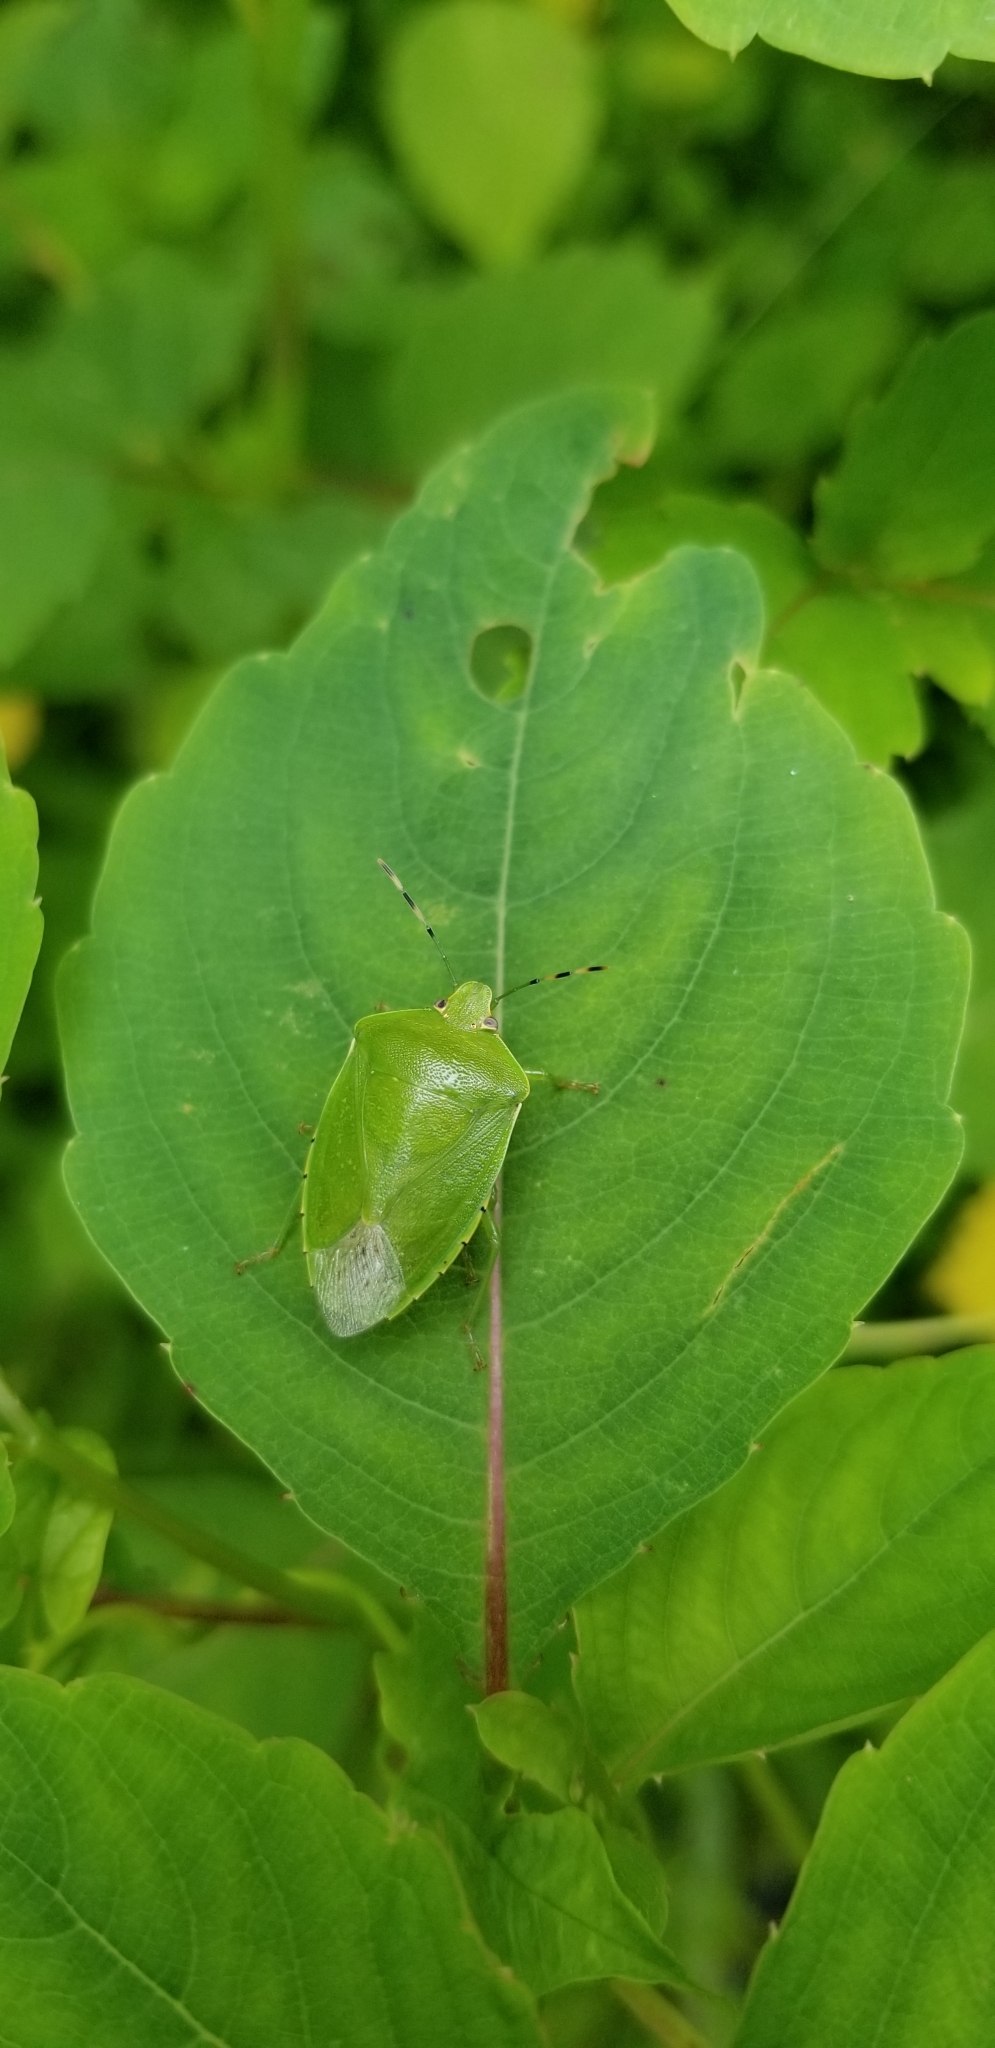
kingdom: Animalia
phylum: Arthropoda
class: Insecta
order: Hemiptera
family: Pentatomidae
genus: Chinavia
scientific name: Chinavia hilaris
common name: Green stink bug
